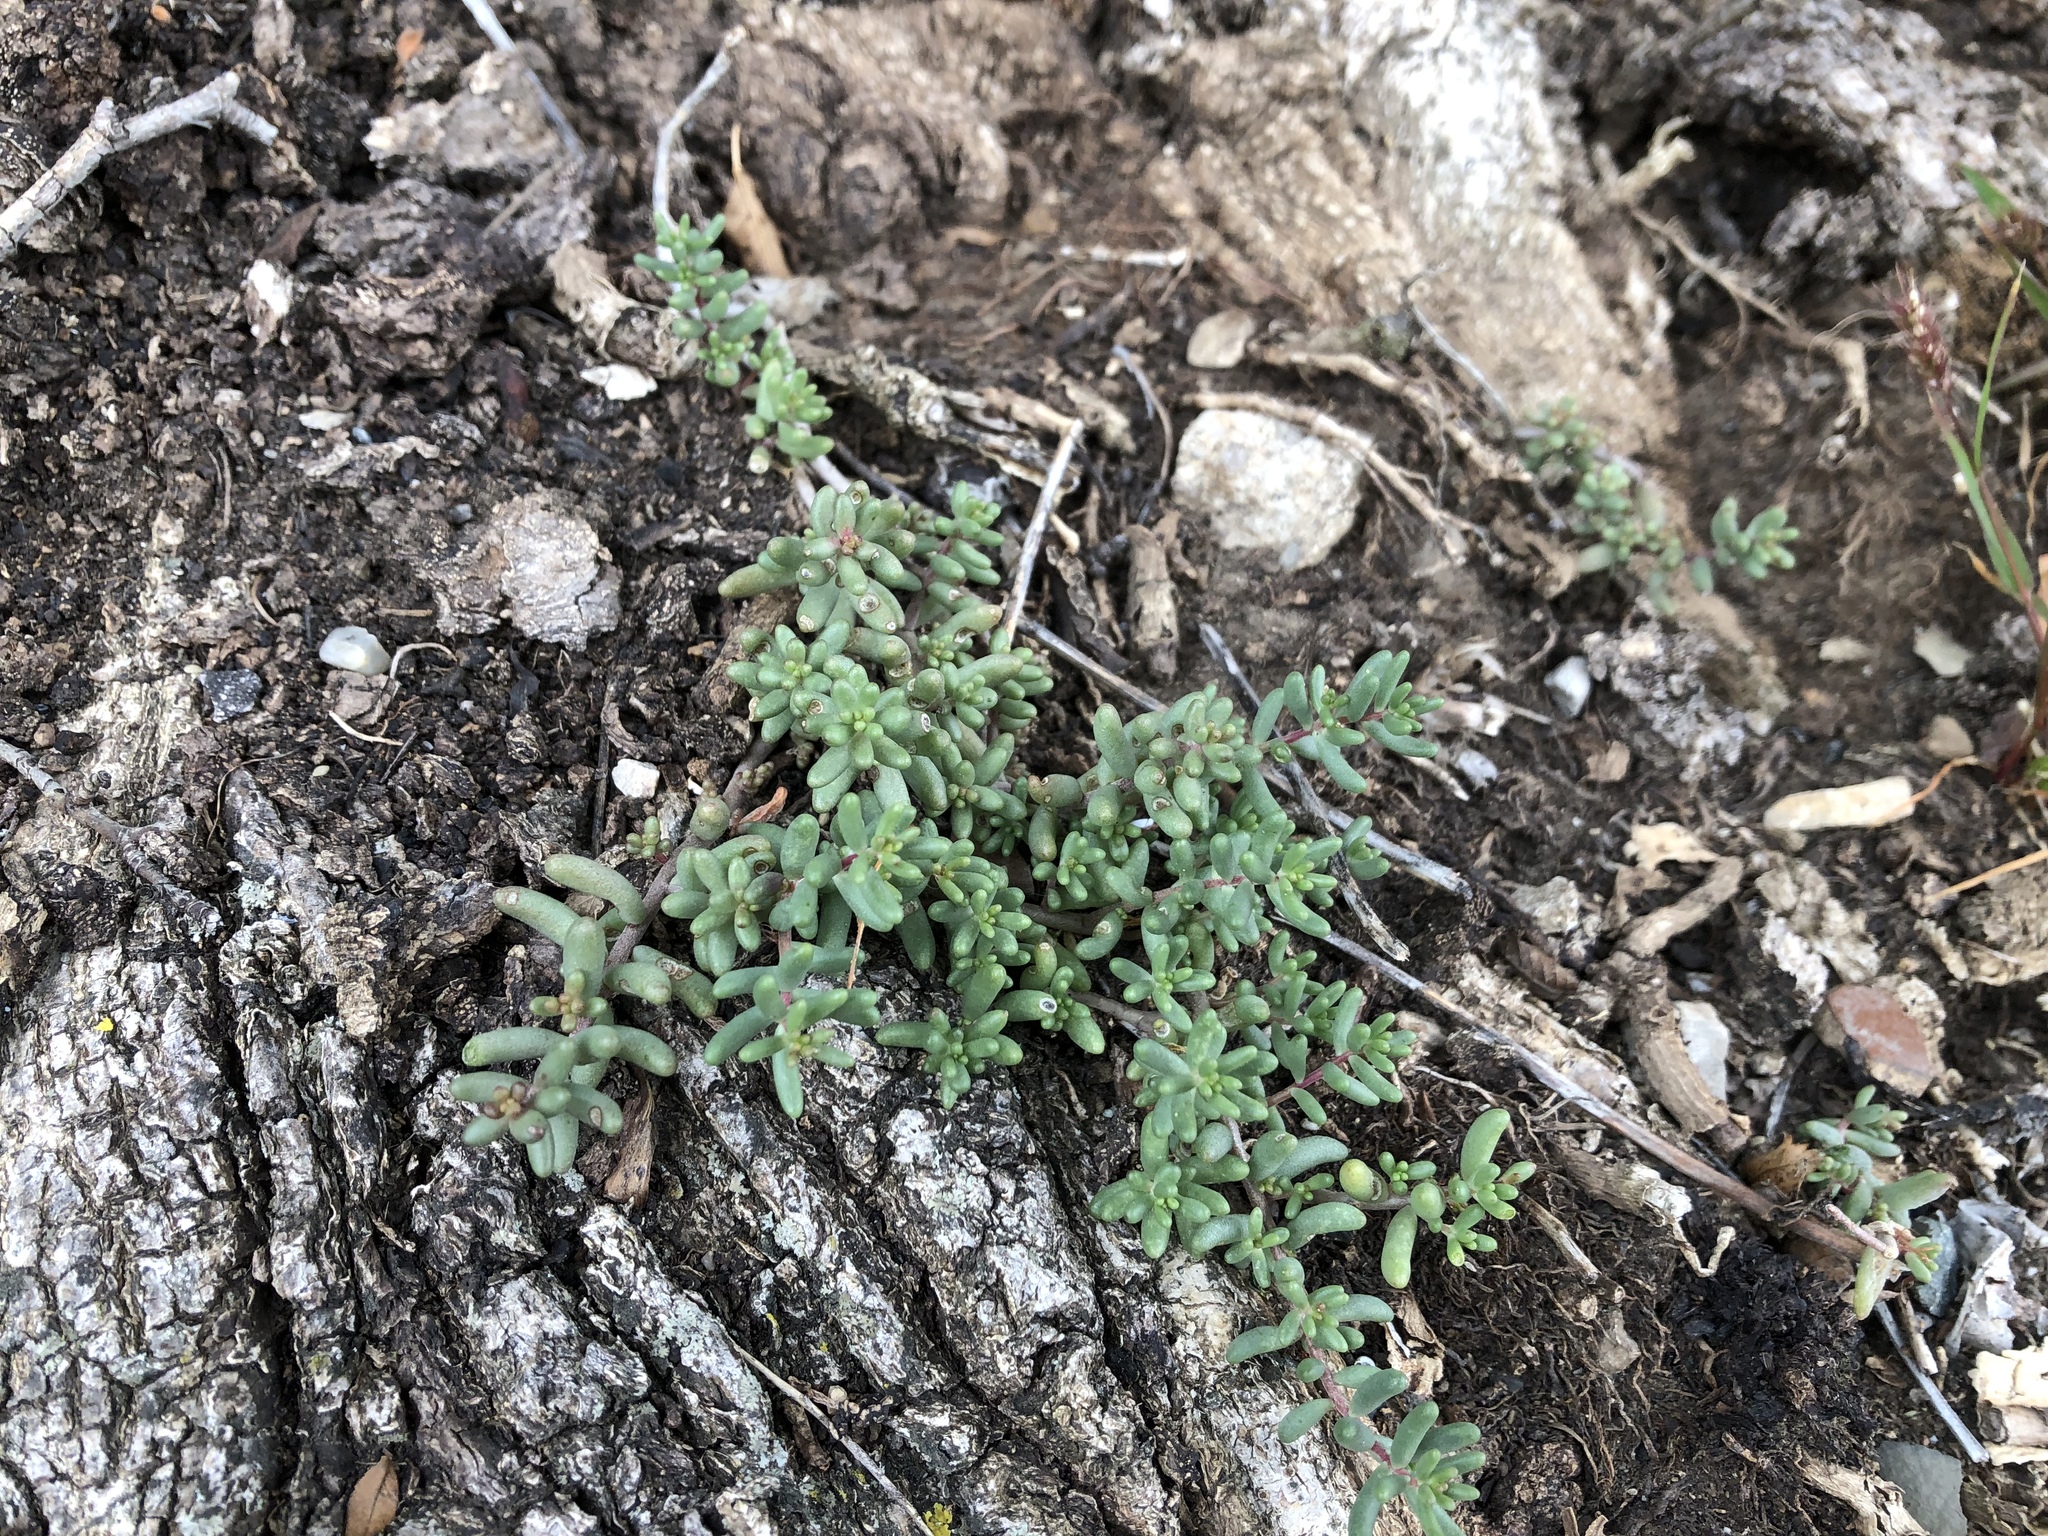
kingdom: Plantae
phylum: Tracheophyta
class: Magnoliopsida
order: Saxifragales
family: Crassulaceae
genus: Sedum
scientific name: Sedum album
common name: White stonecrop
